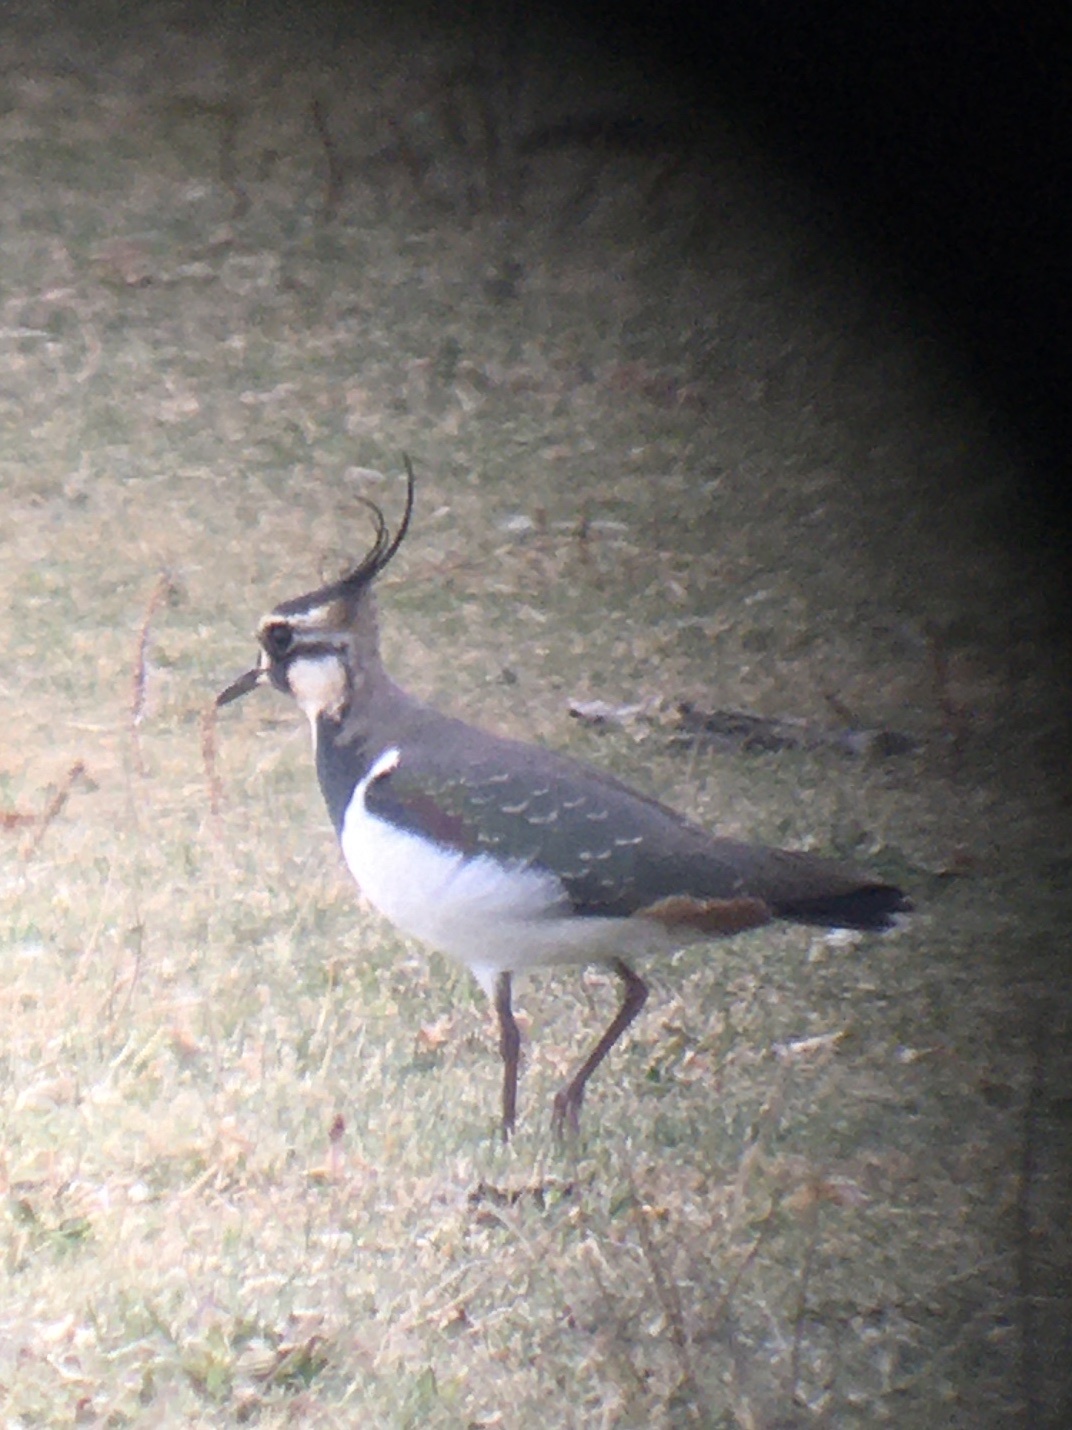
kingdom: Animalia
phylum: Chordata
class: Aves
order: Charadriiformes
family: Charadriidae
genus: Vanellus
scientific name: Vanellus vanellus
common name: Northern lapwing
